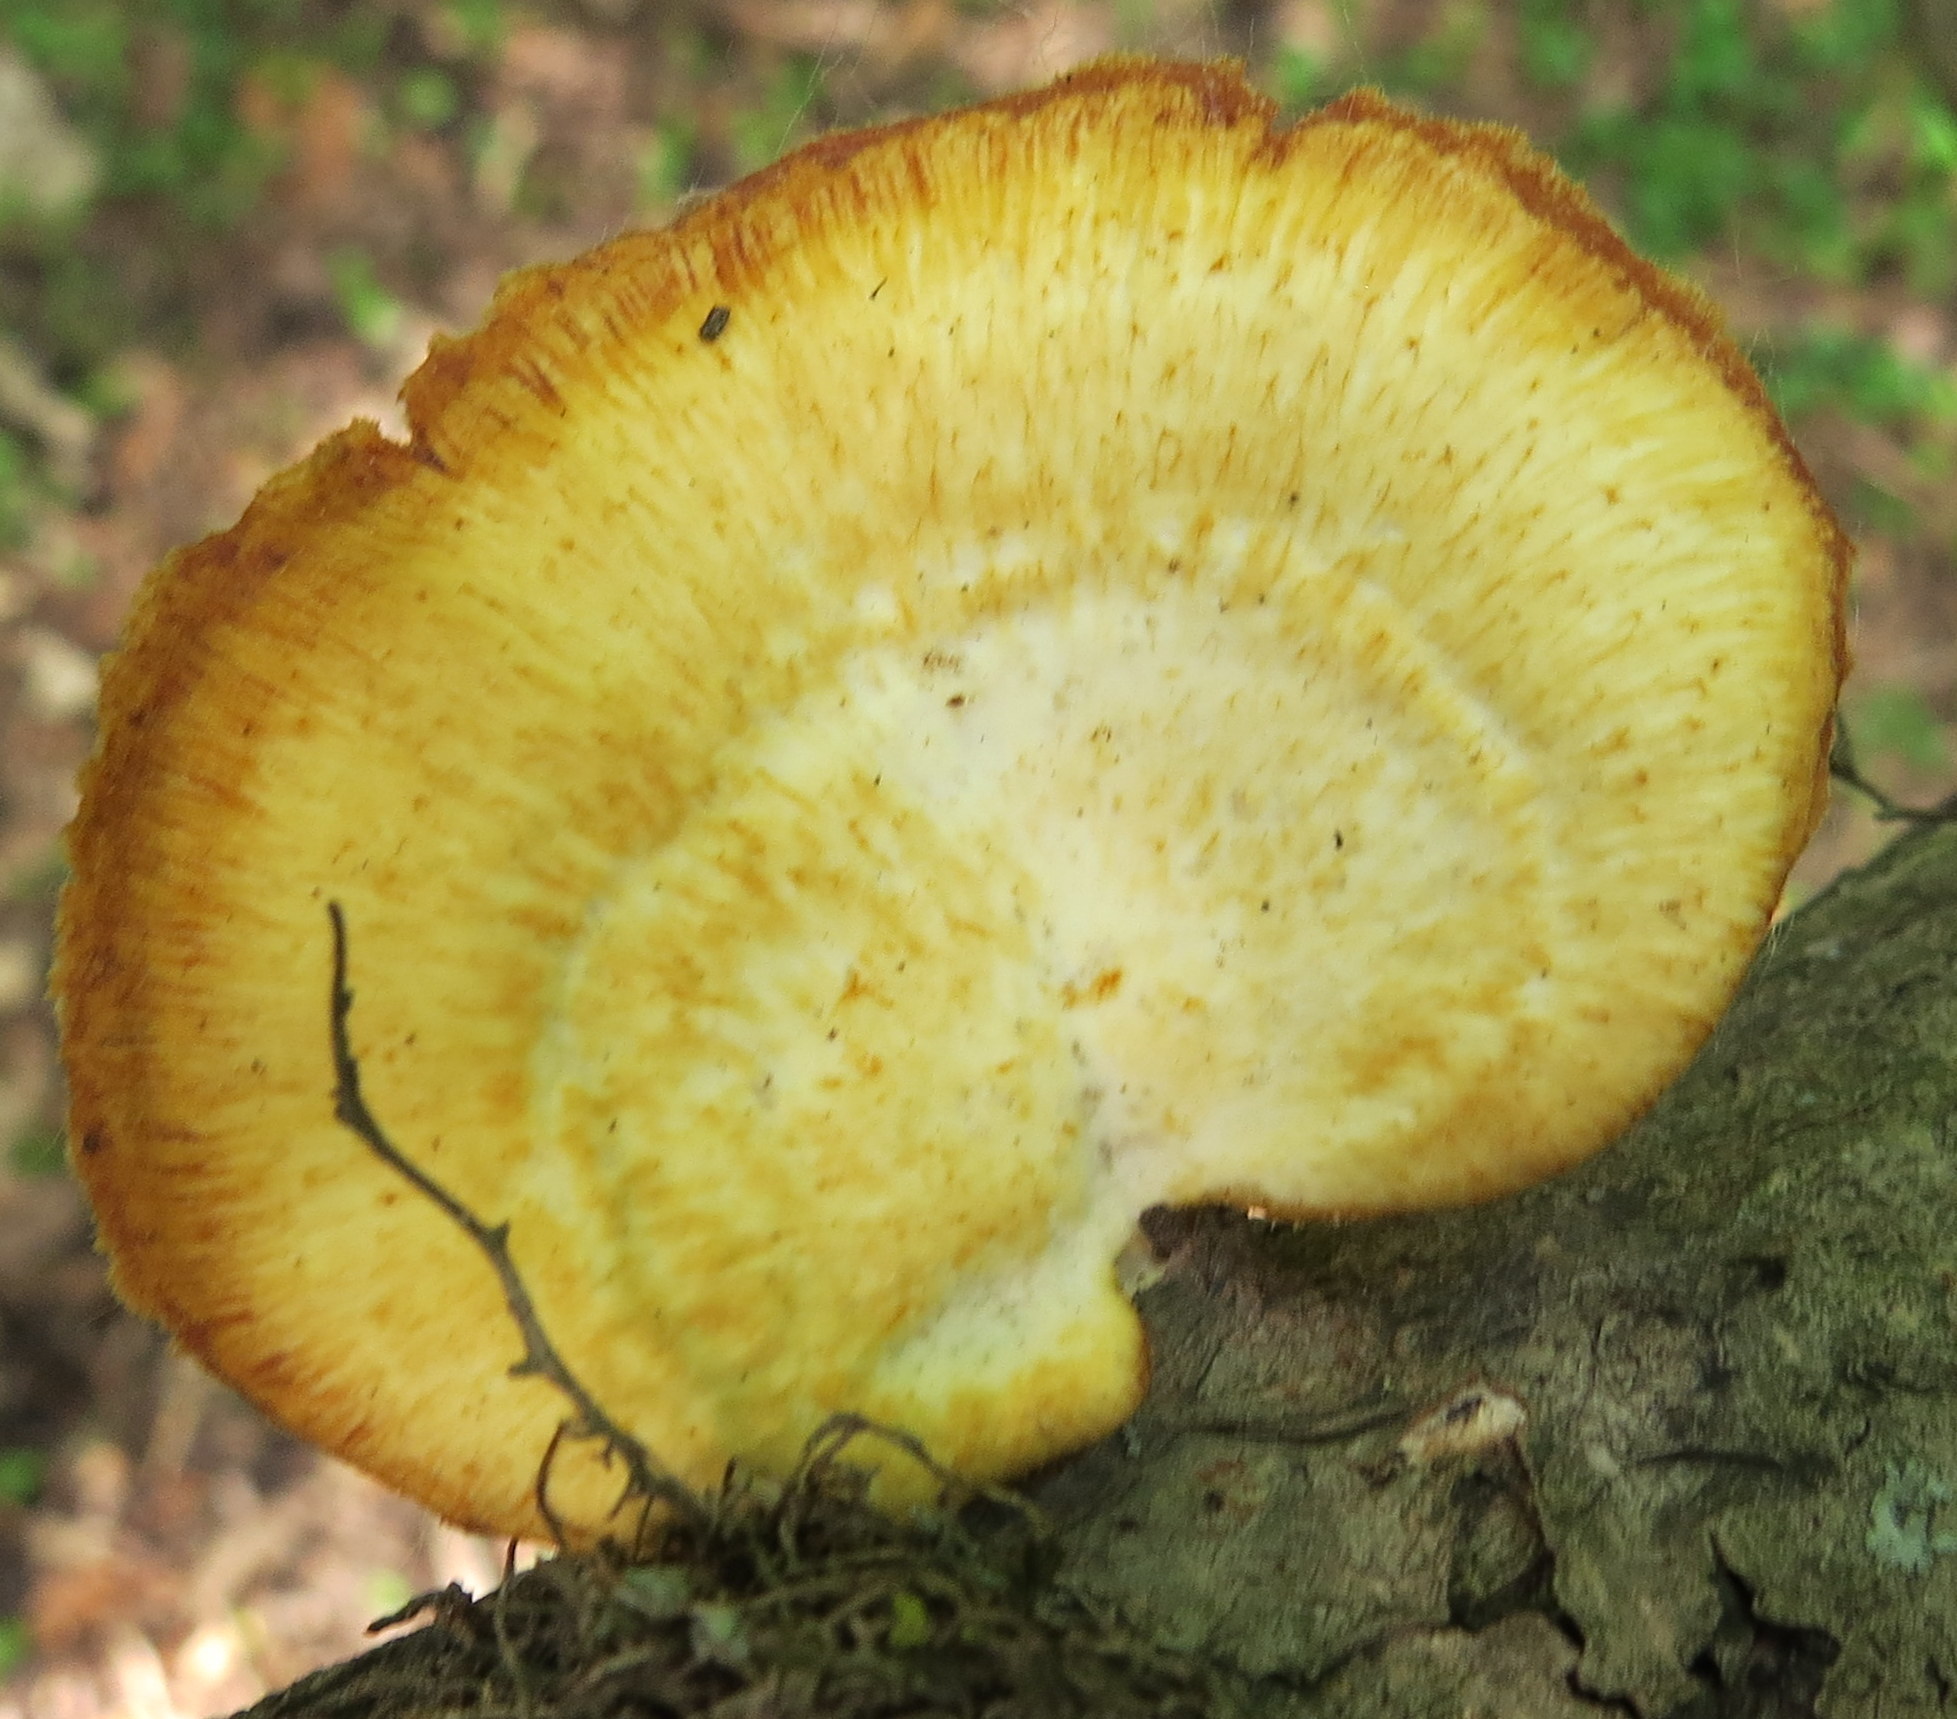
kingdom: Fungi
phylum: Basidiomycota
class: Agaricomycetes
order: Polyporales
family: Polyporaceae
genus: Neofavolus
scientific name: Neofavolus alveolaris
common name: Hexagonal-pored polypore
